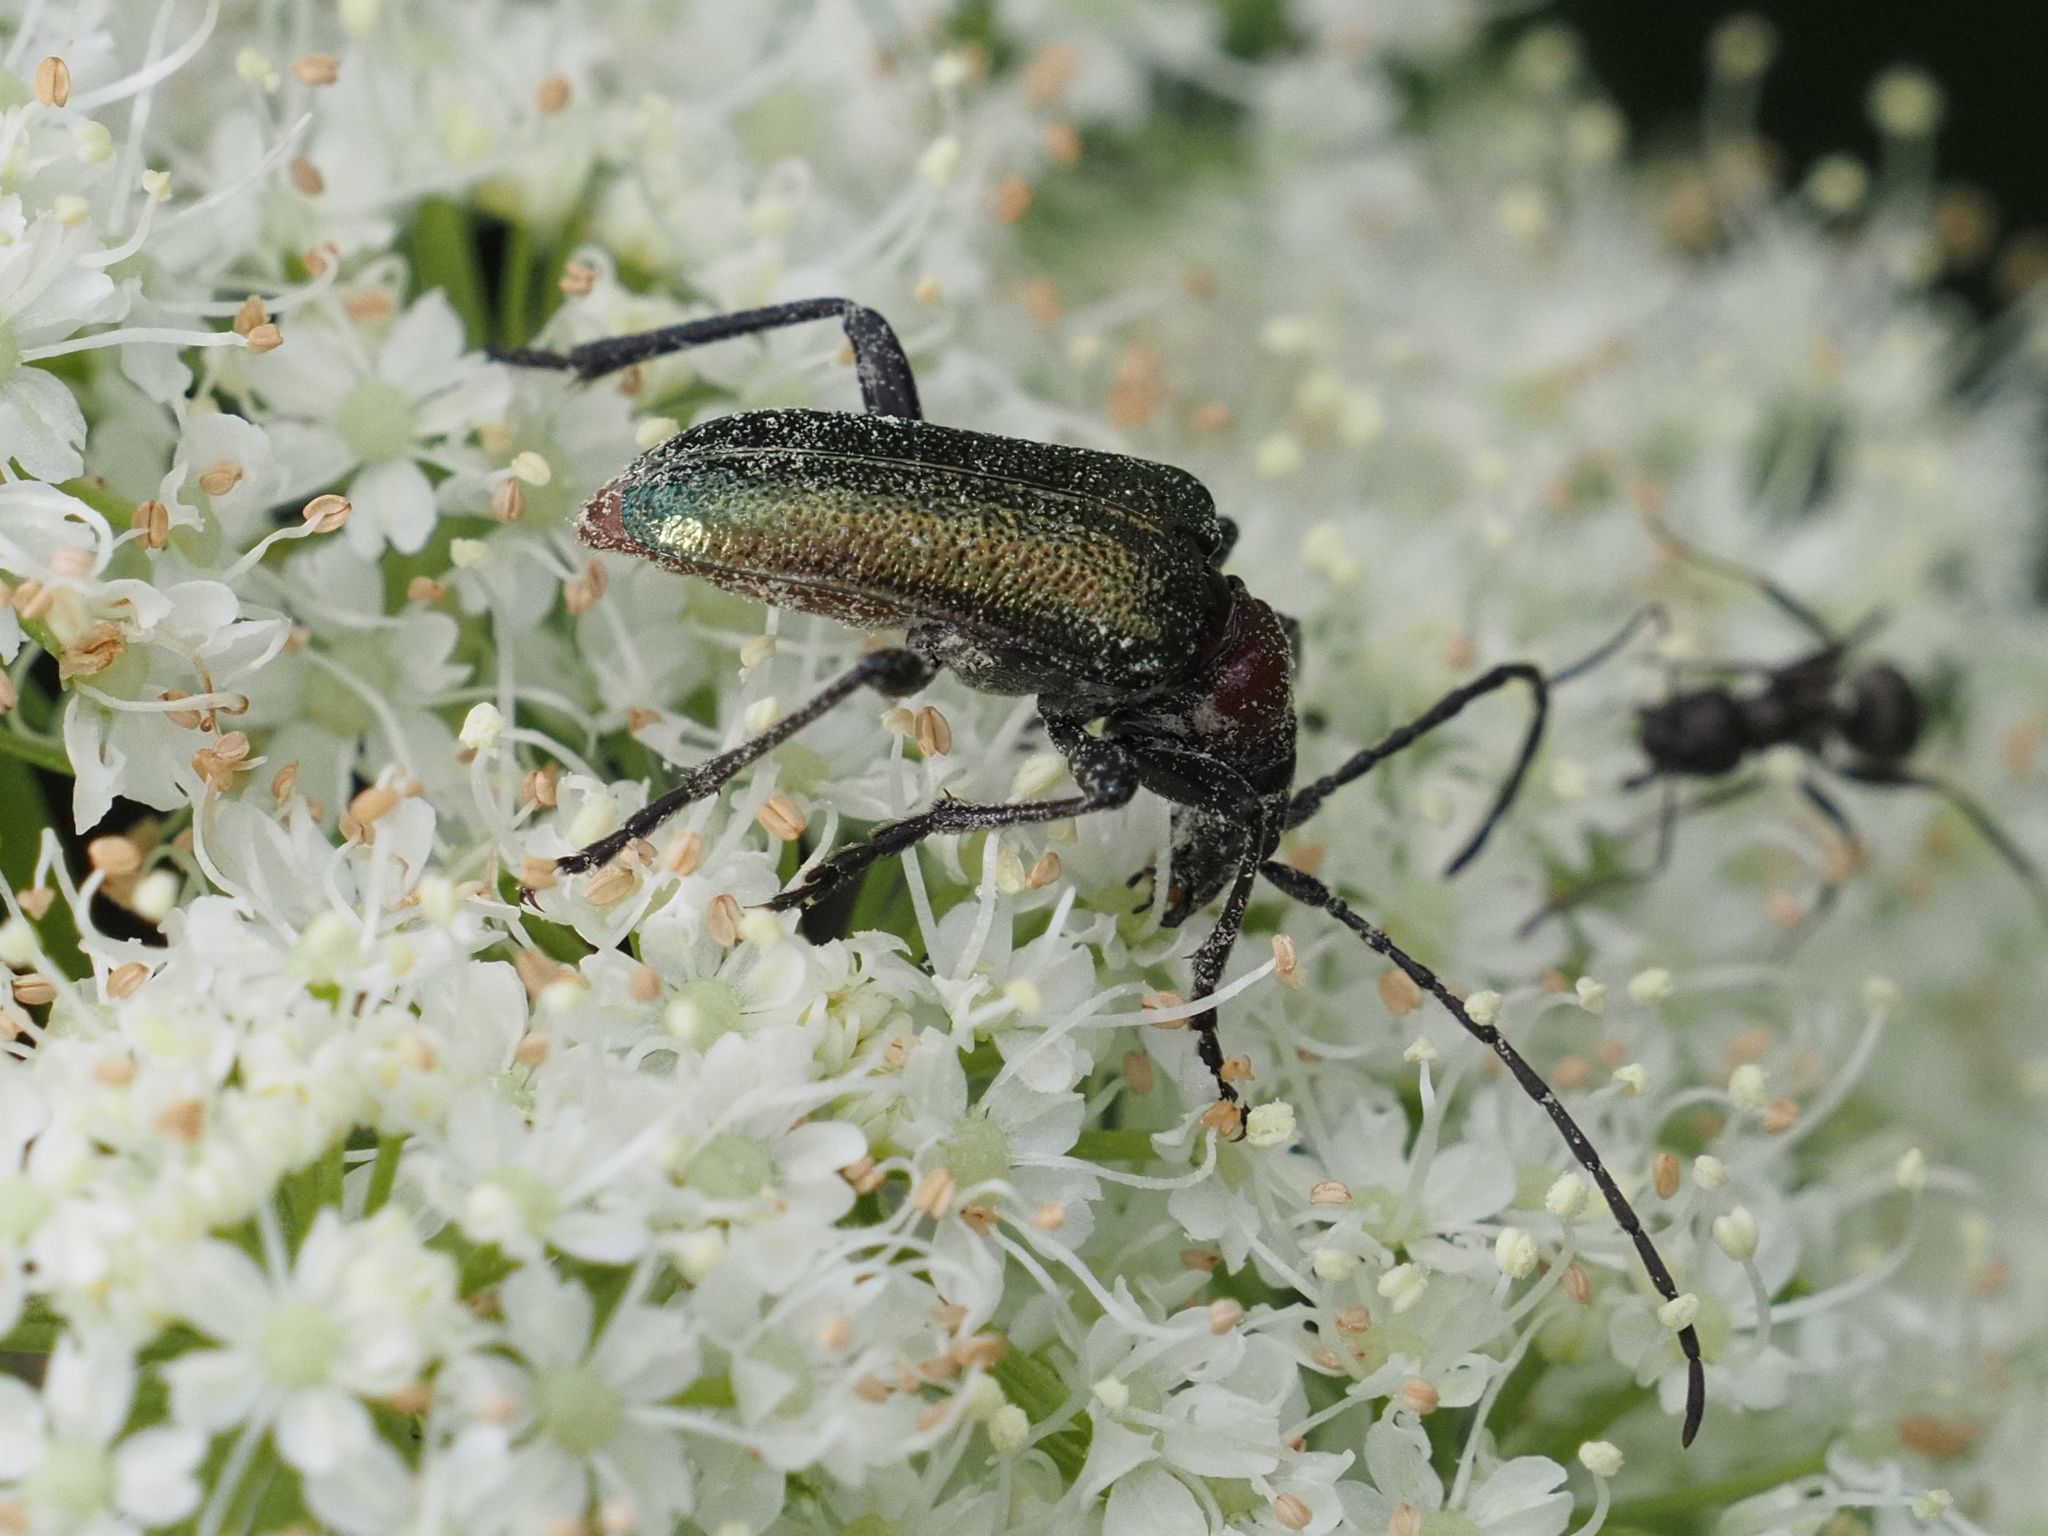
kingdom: Animalia
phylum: Arthropoda
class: Insecta
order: Coleoptera
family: Cerambycidae
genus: Gaurotes
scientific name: Gaurotes virginea
